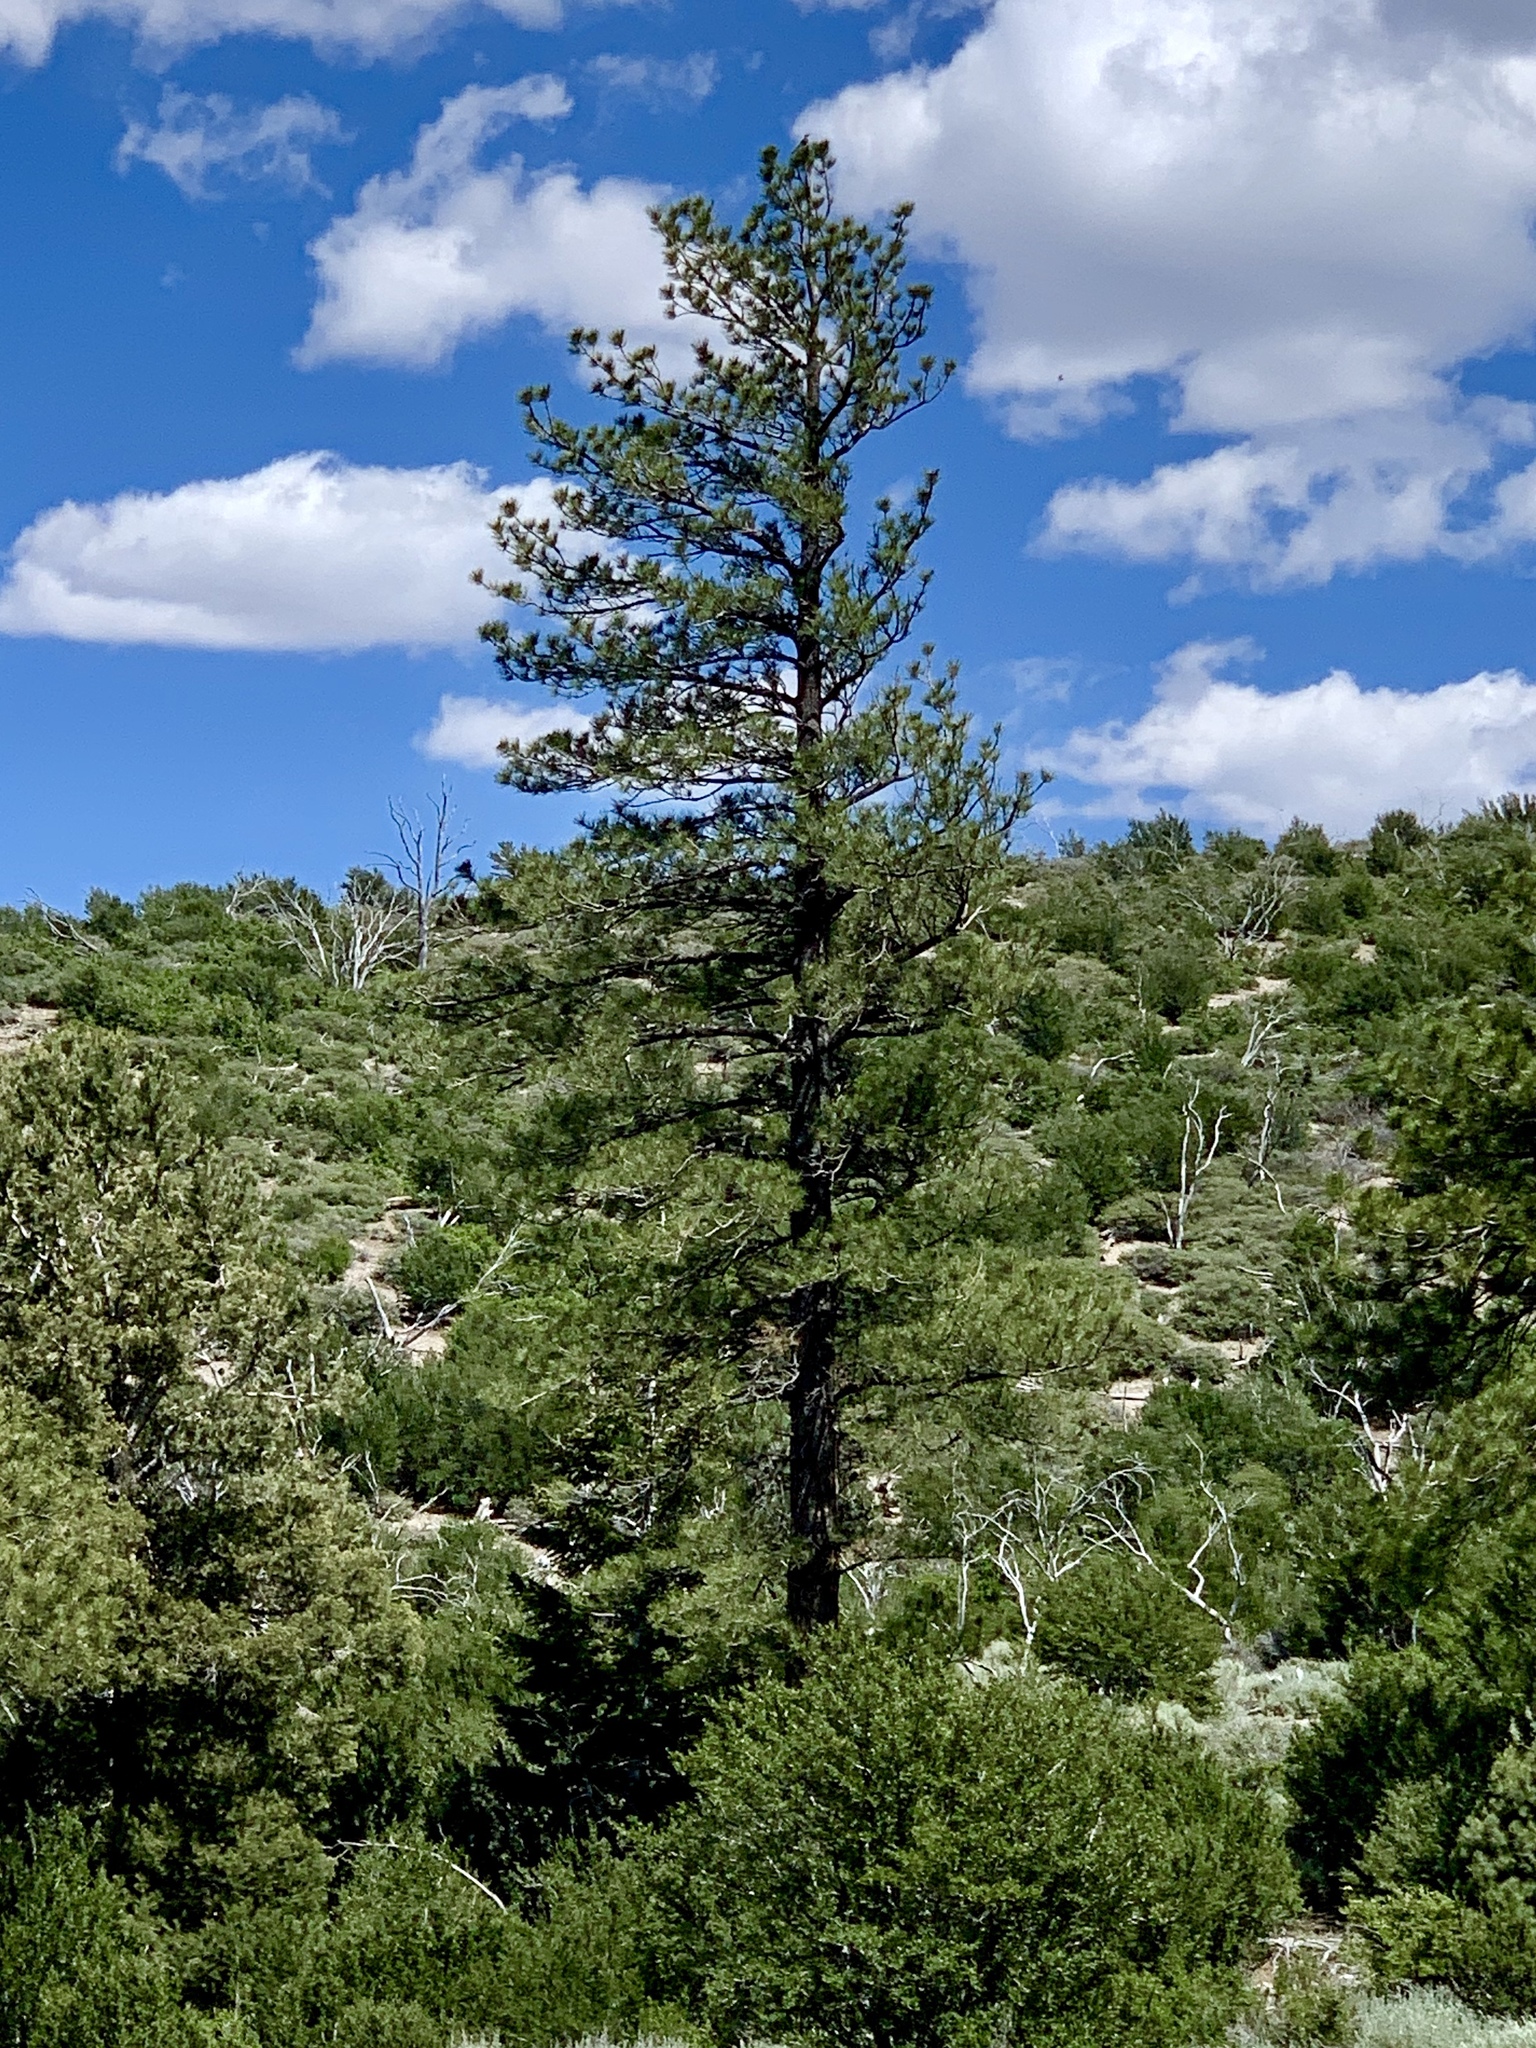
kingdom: Plantae
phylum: Tracheophyta
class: Pinopsida
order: Pinales
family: Pinaceae
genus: Pinus
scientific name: Pinus ponderosa
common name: Western yellow-pine
